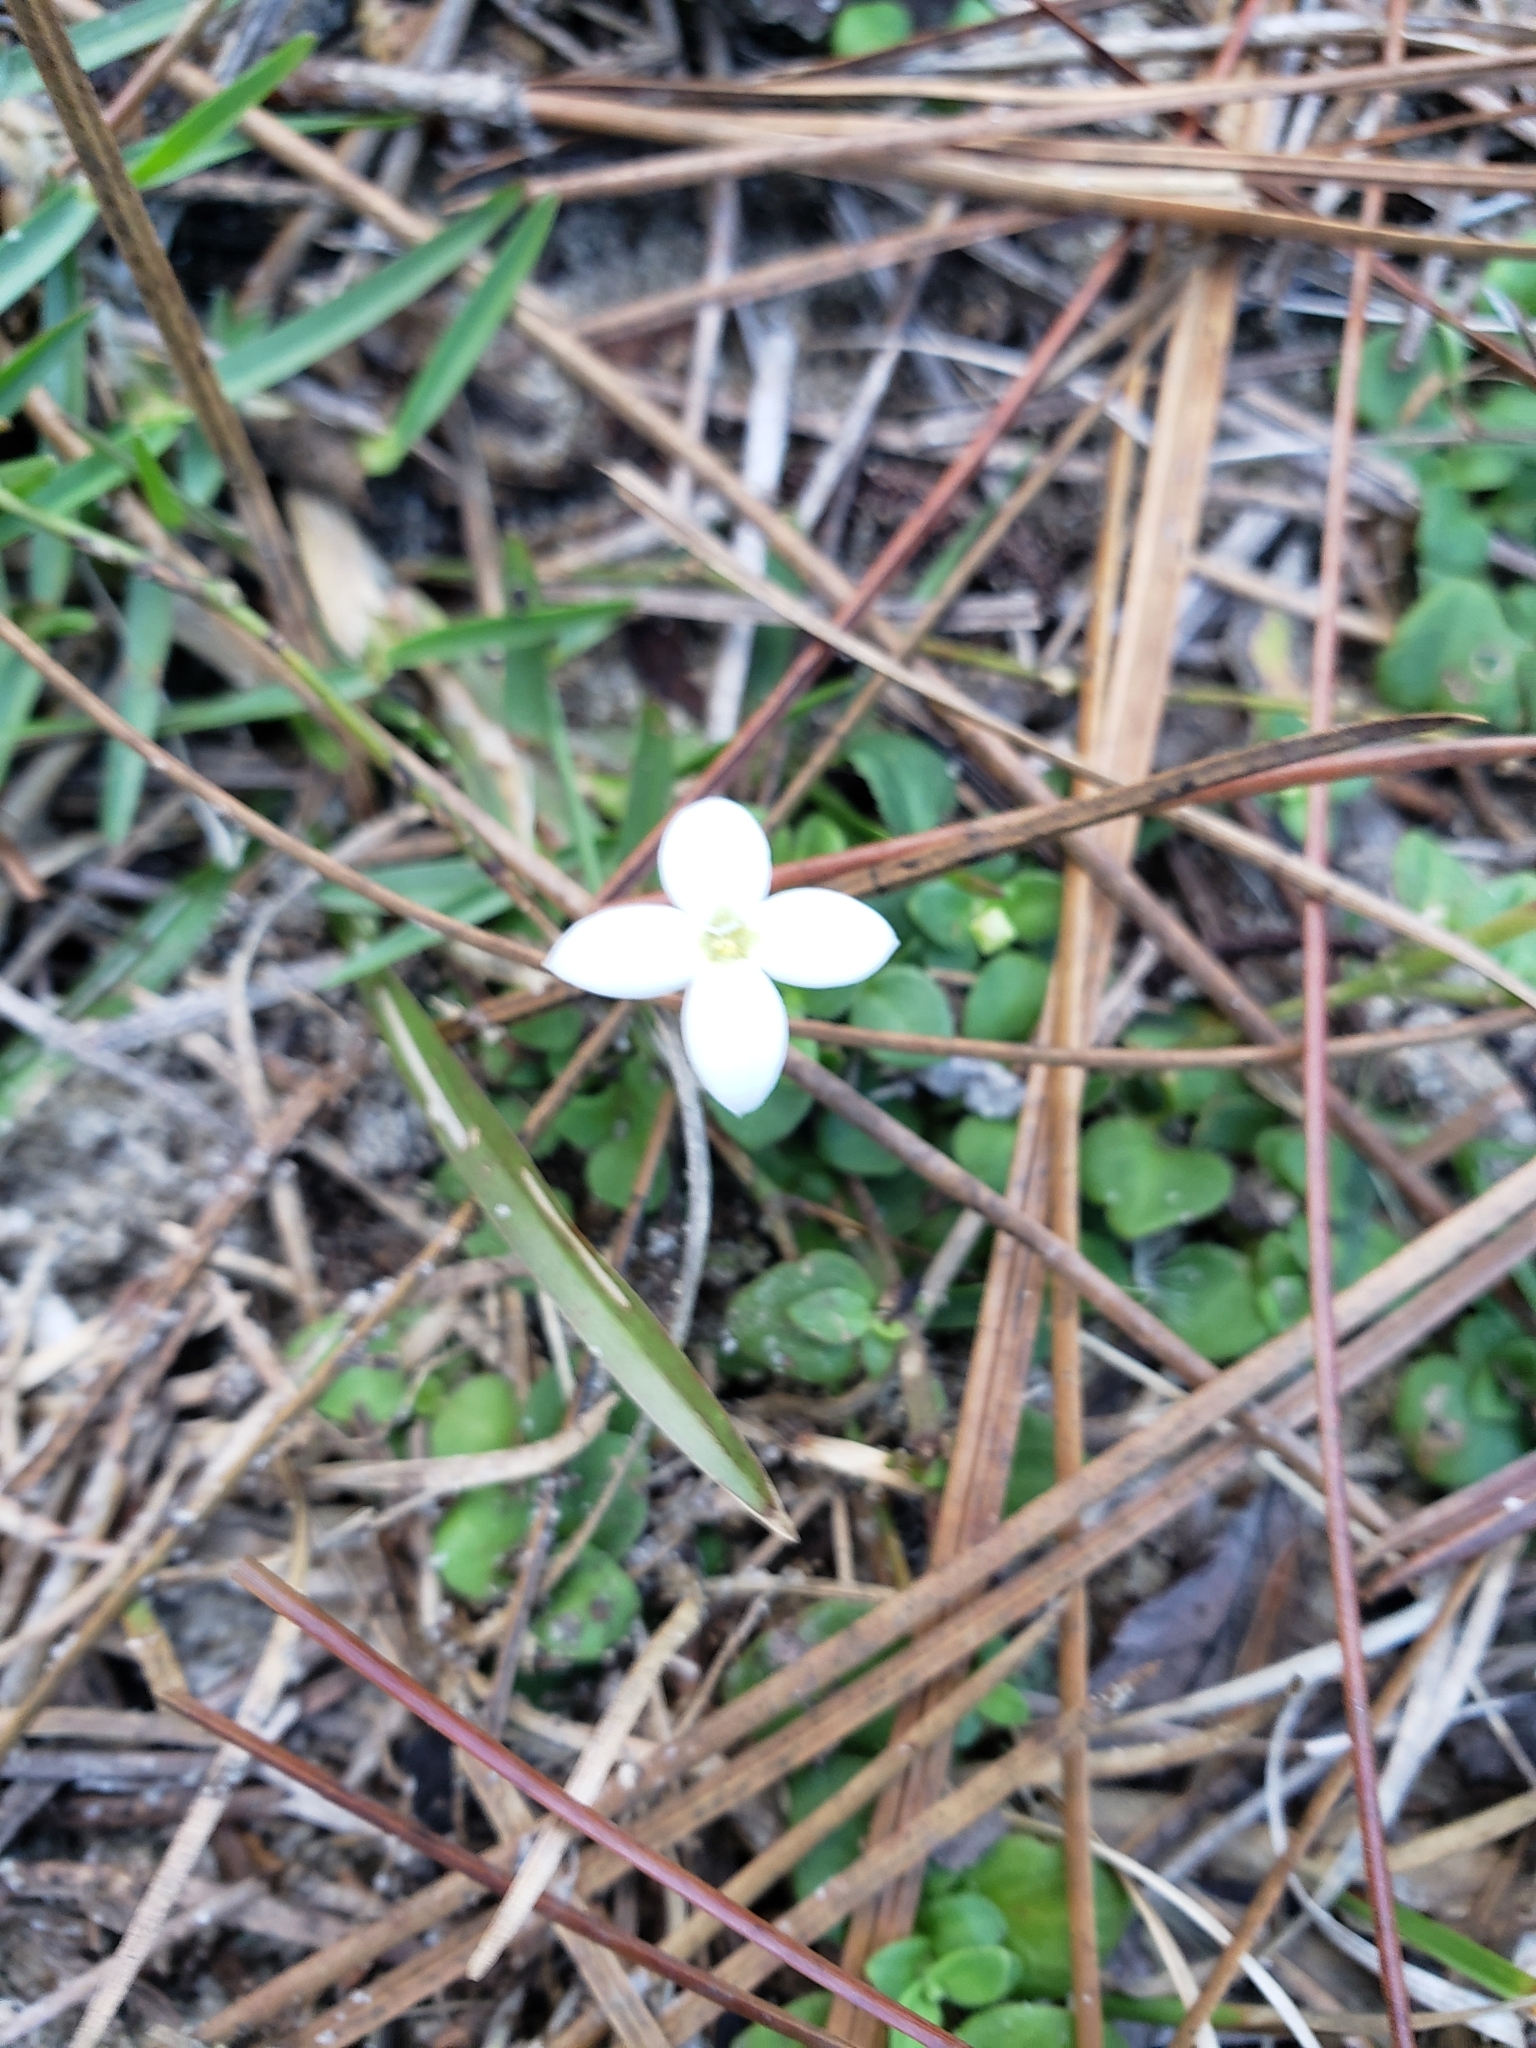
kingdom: Plantae
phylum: Tracheophyta
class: Magnoliopsida
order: Gentianales
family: Rubiaceae
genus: Houstonia
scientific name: Houstonia procumbens
